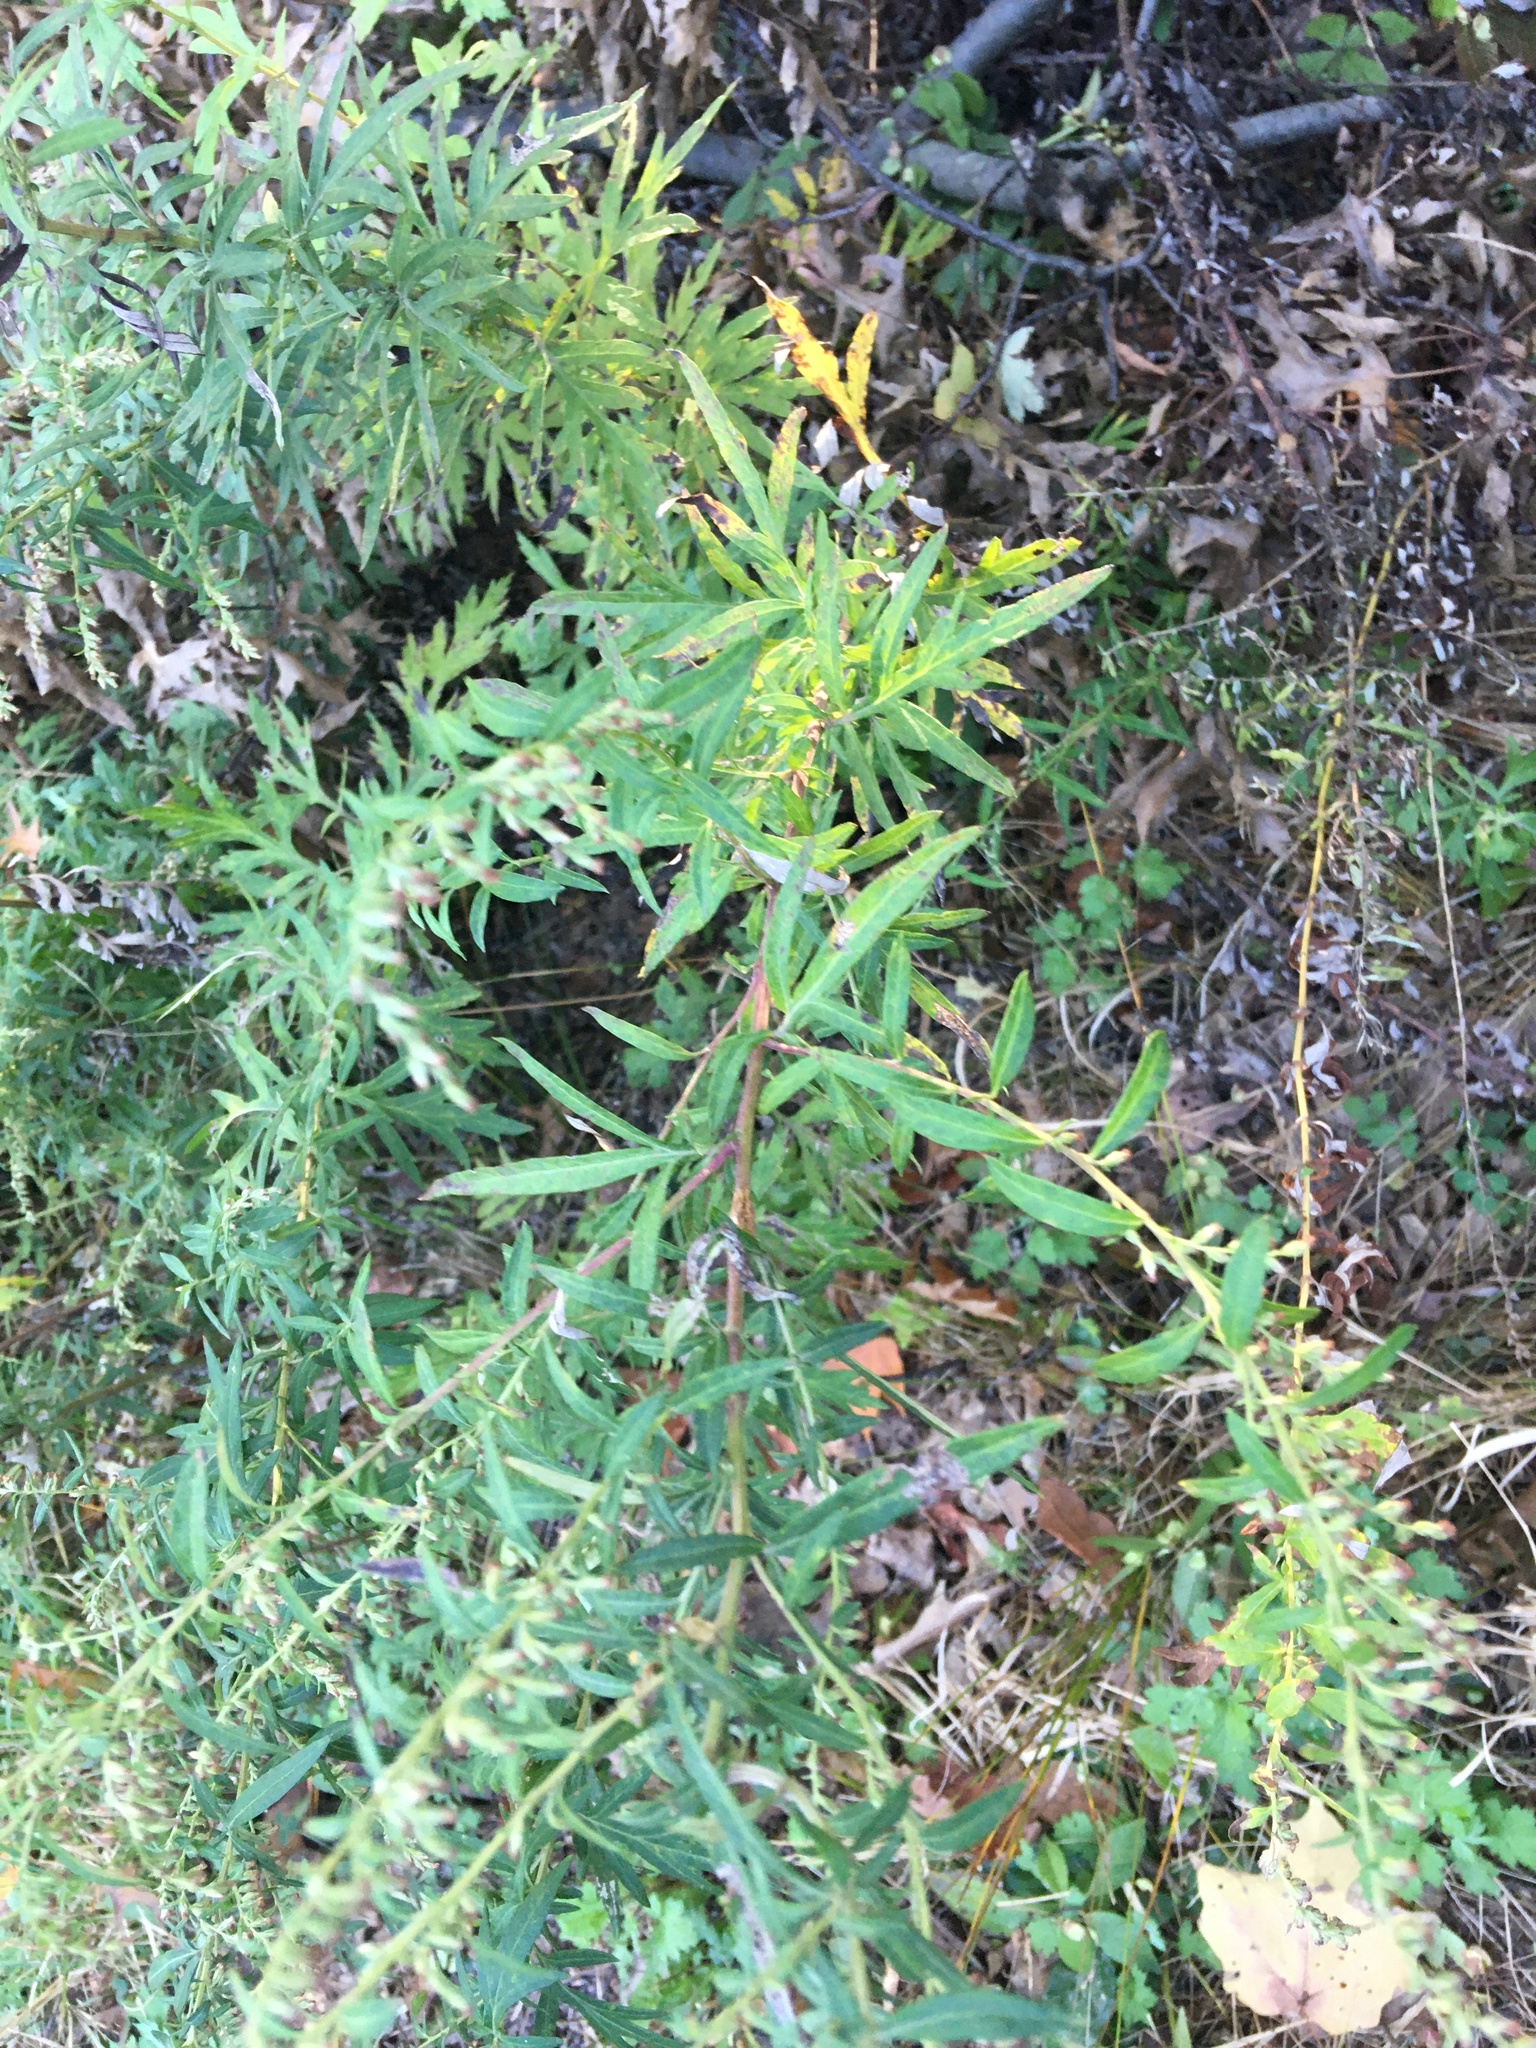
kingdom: Plantae
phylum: Tracheophyta
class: Magnoliopsida
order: Asterales
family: Asteraceae
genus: Artemisia
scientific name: Artemisia vulgaris
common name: Mugwort
